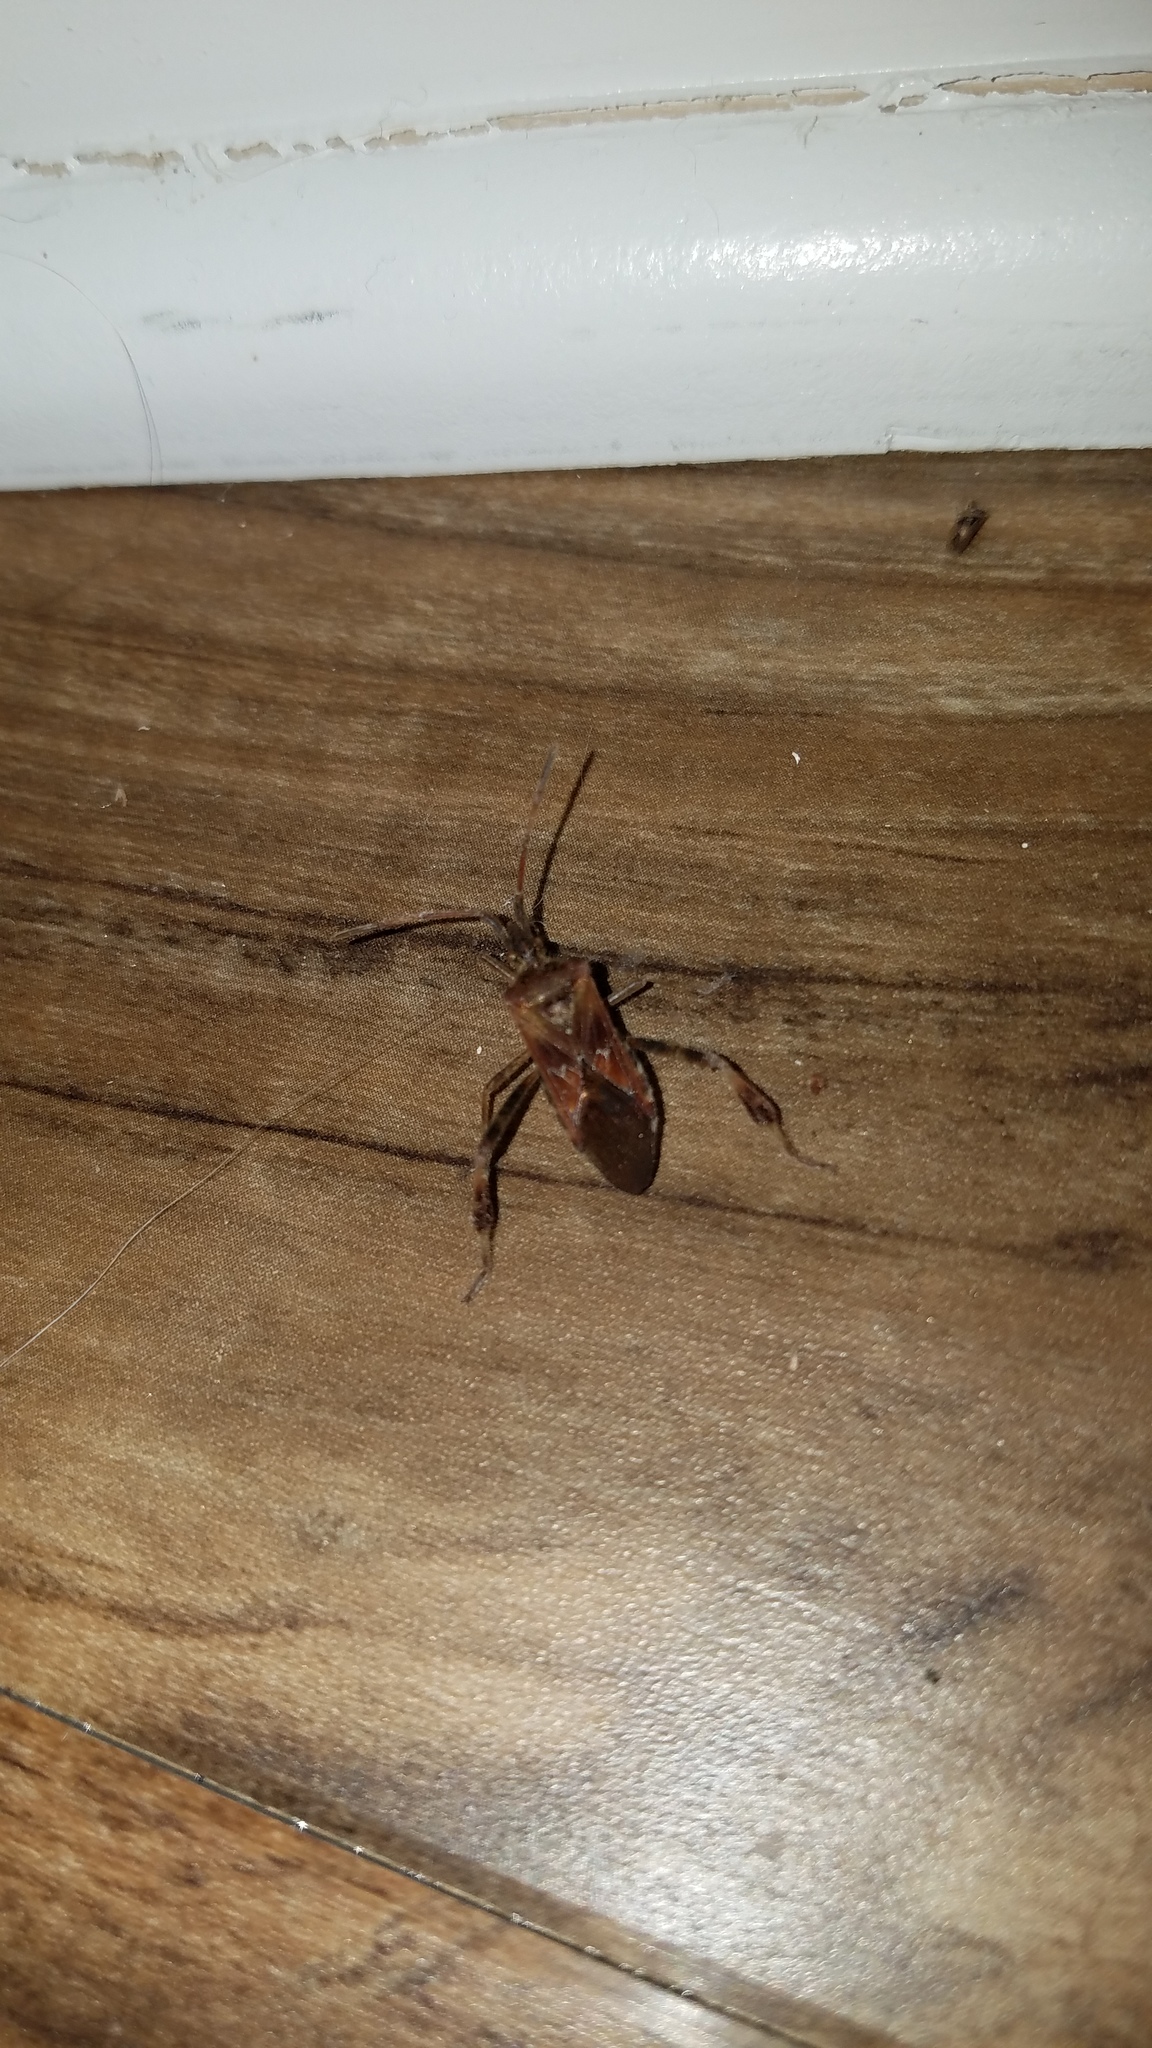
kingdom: Animalia
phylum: Arthropoda
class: Insecta
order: Hemiptera
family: Coreidae
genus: Leptoglossus
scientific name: Leptoglossus occidentalis
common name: Western conifer-seed bug
